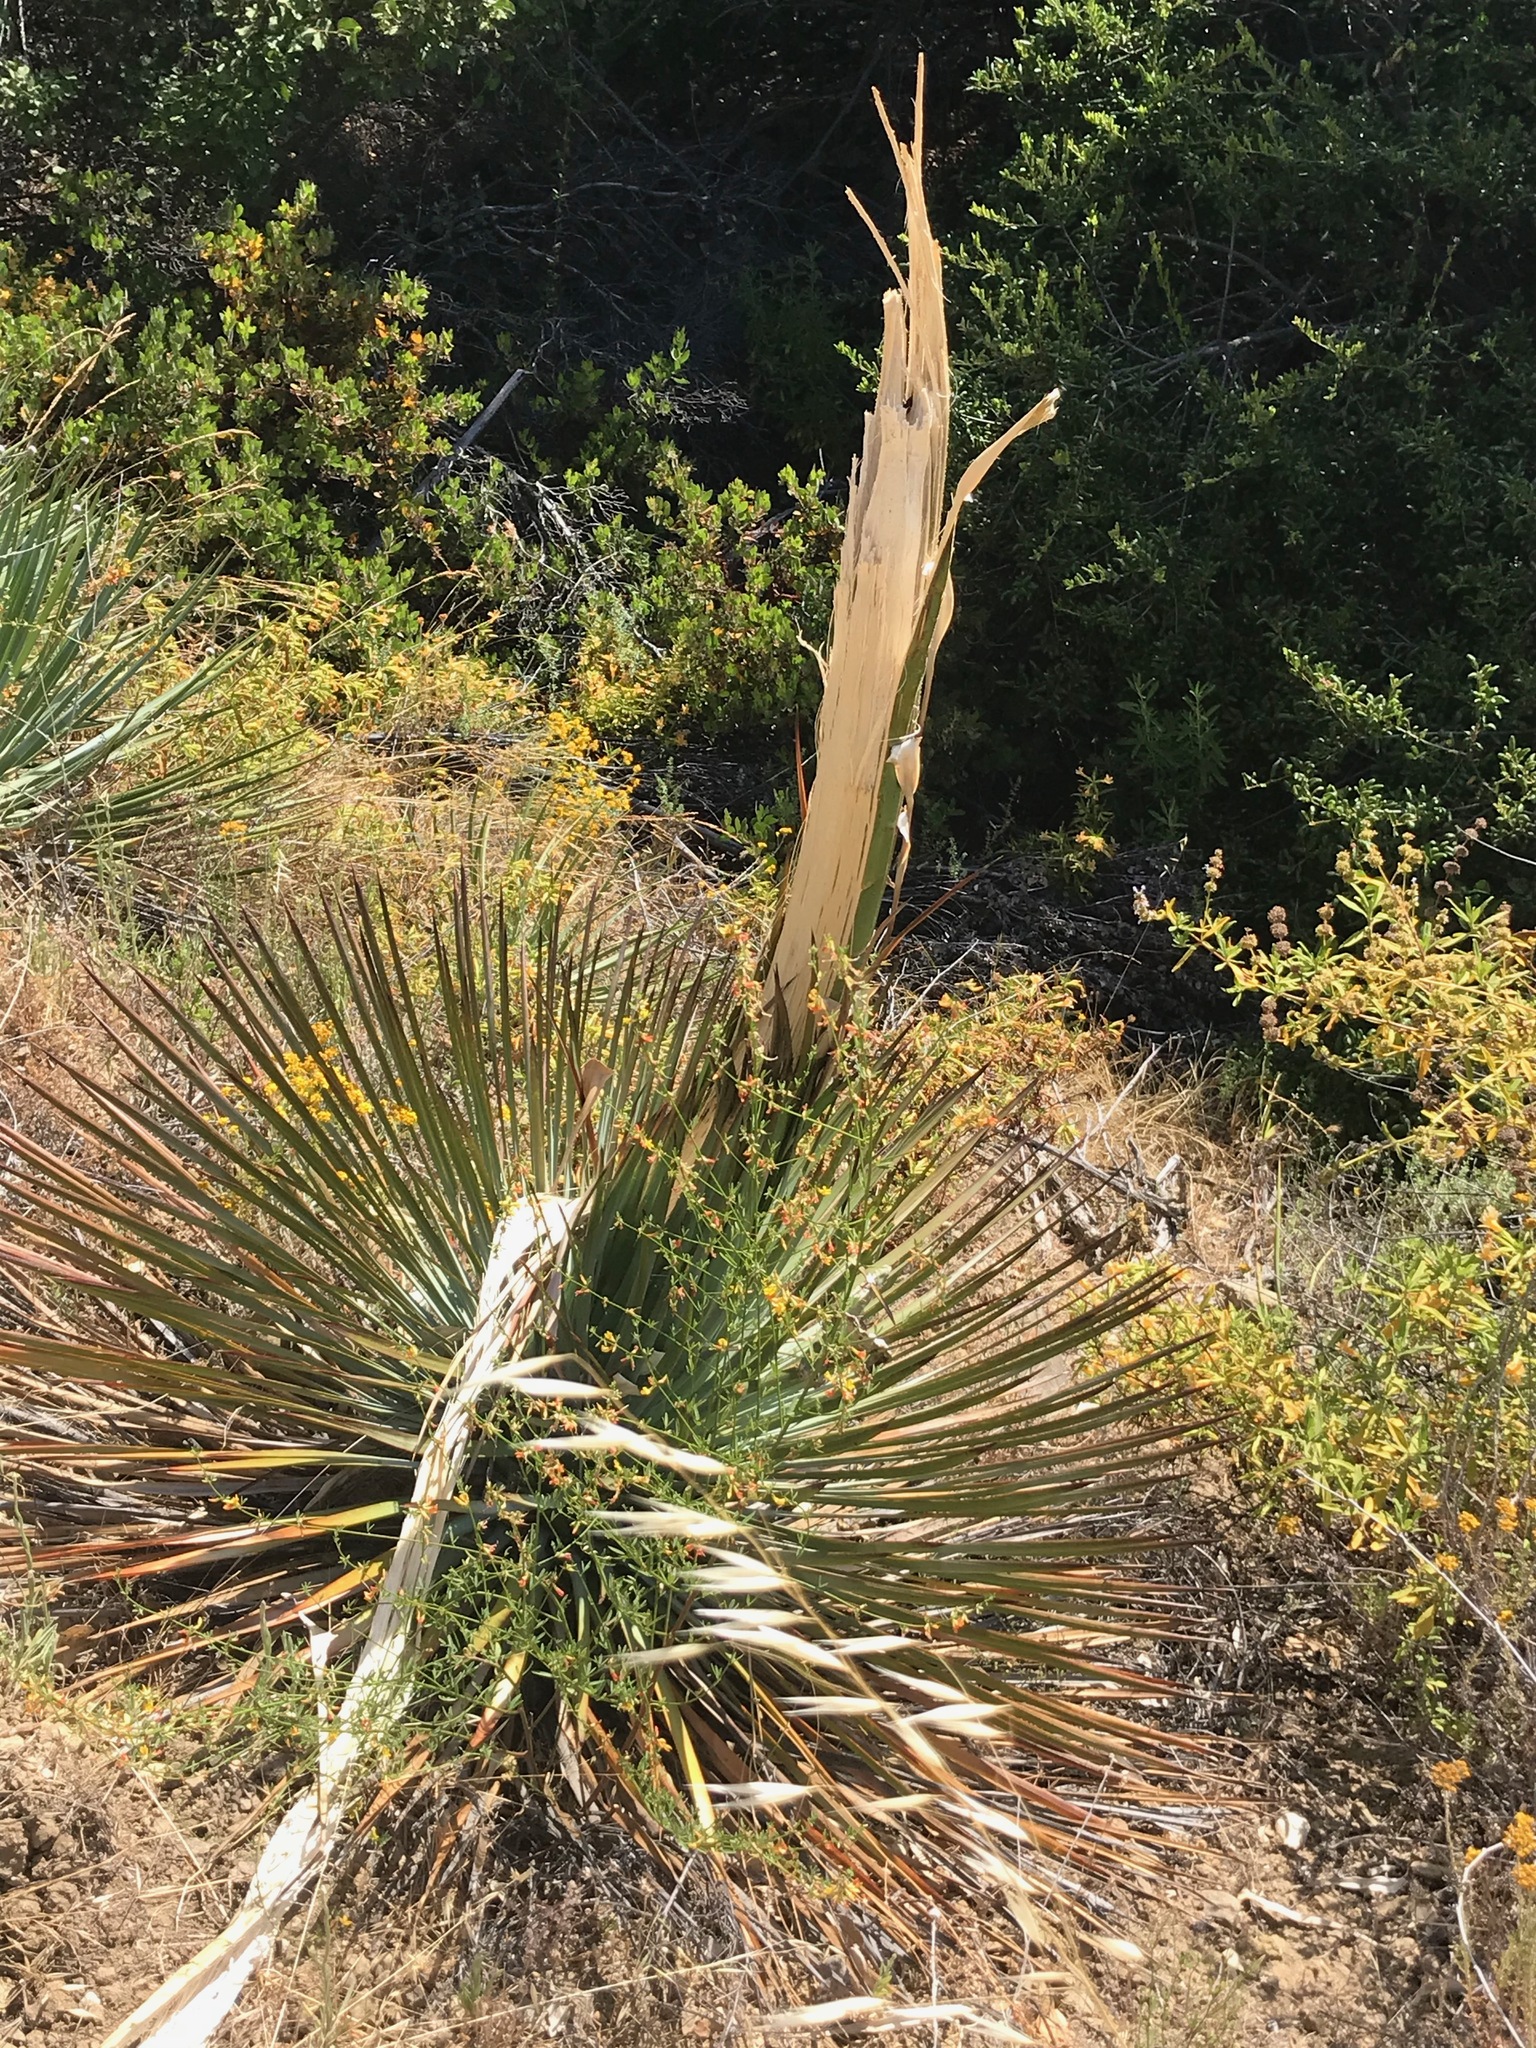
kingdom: Plantae
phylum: Tracheophyta
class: Liliopsida
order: Asparagales
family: Asparagaceae
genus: Hesperoyucca
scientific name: Hesperoyucca whipplei
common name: Our lord's-candle
